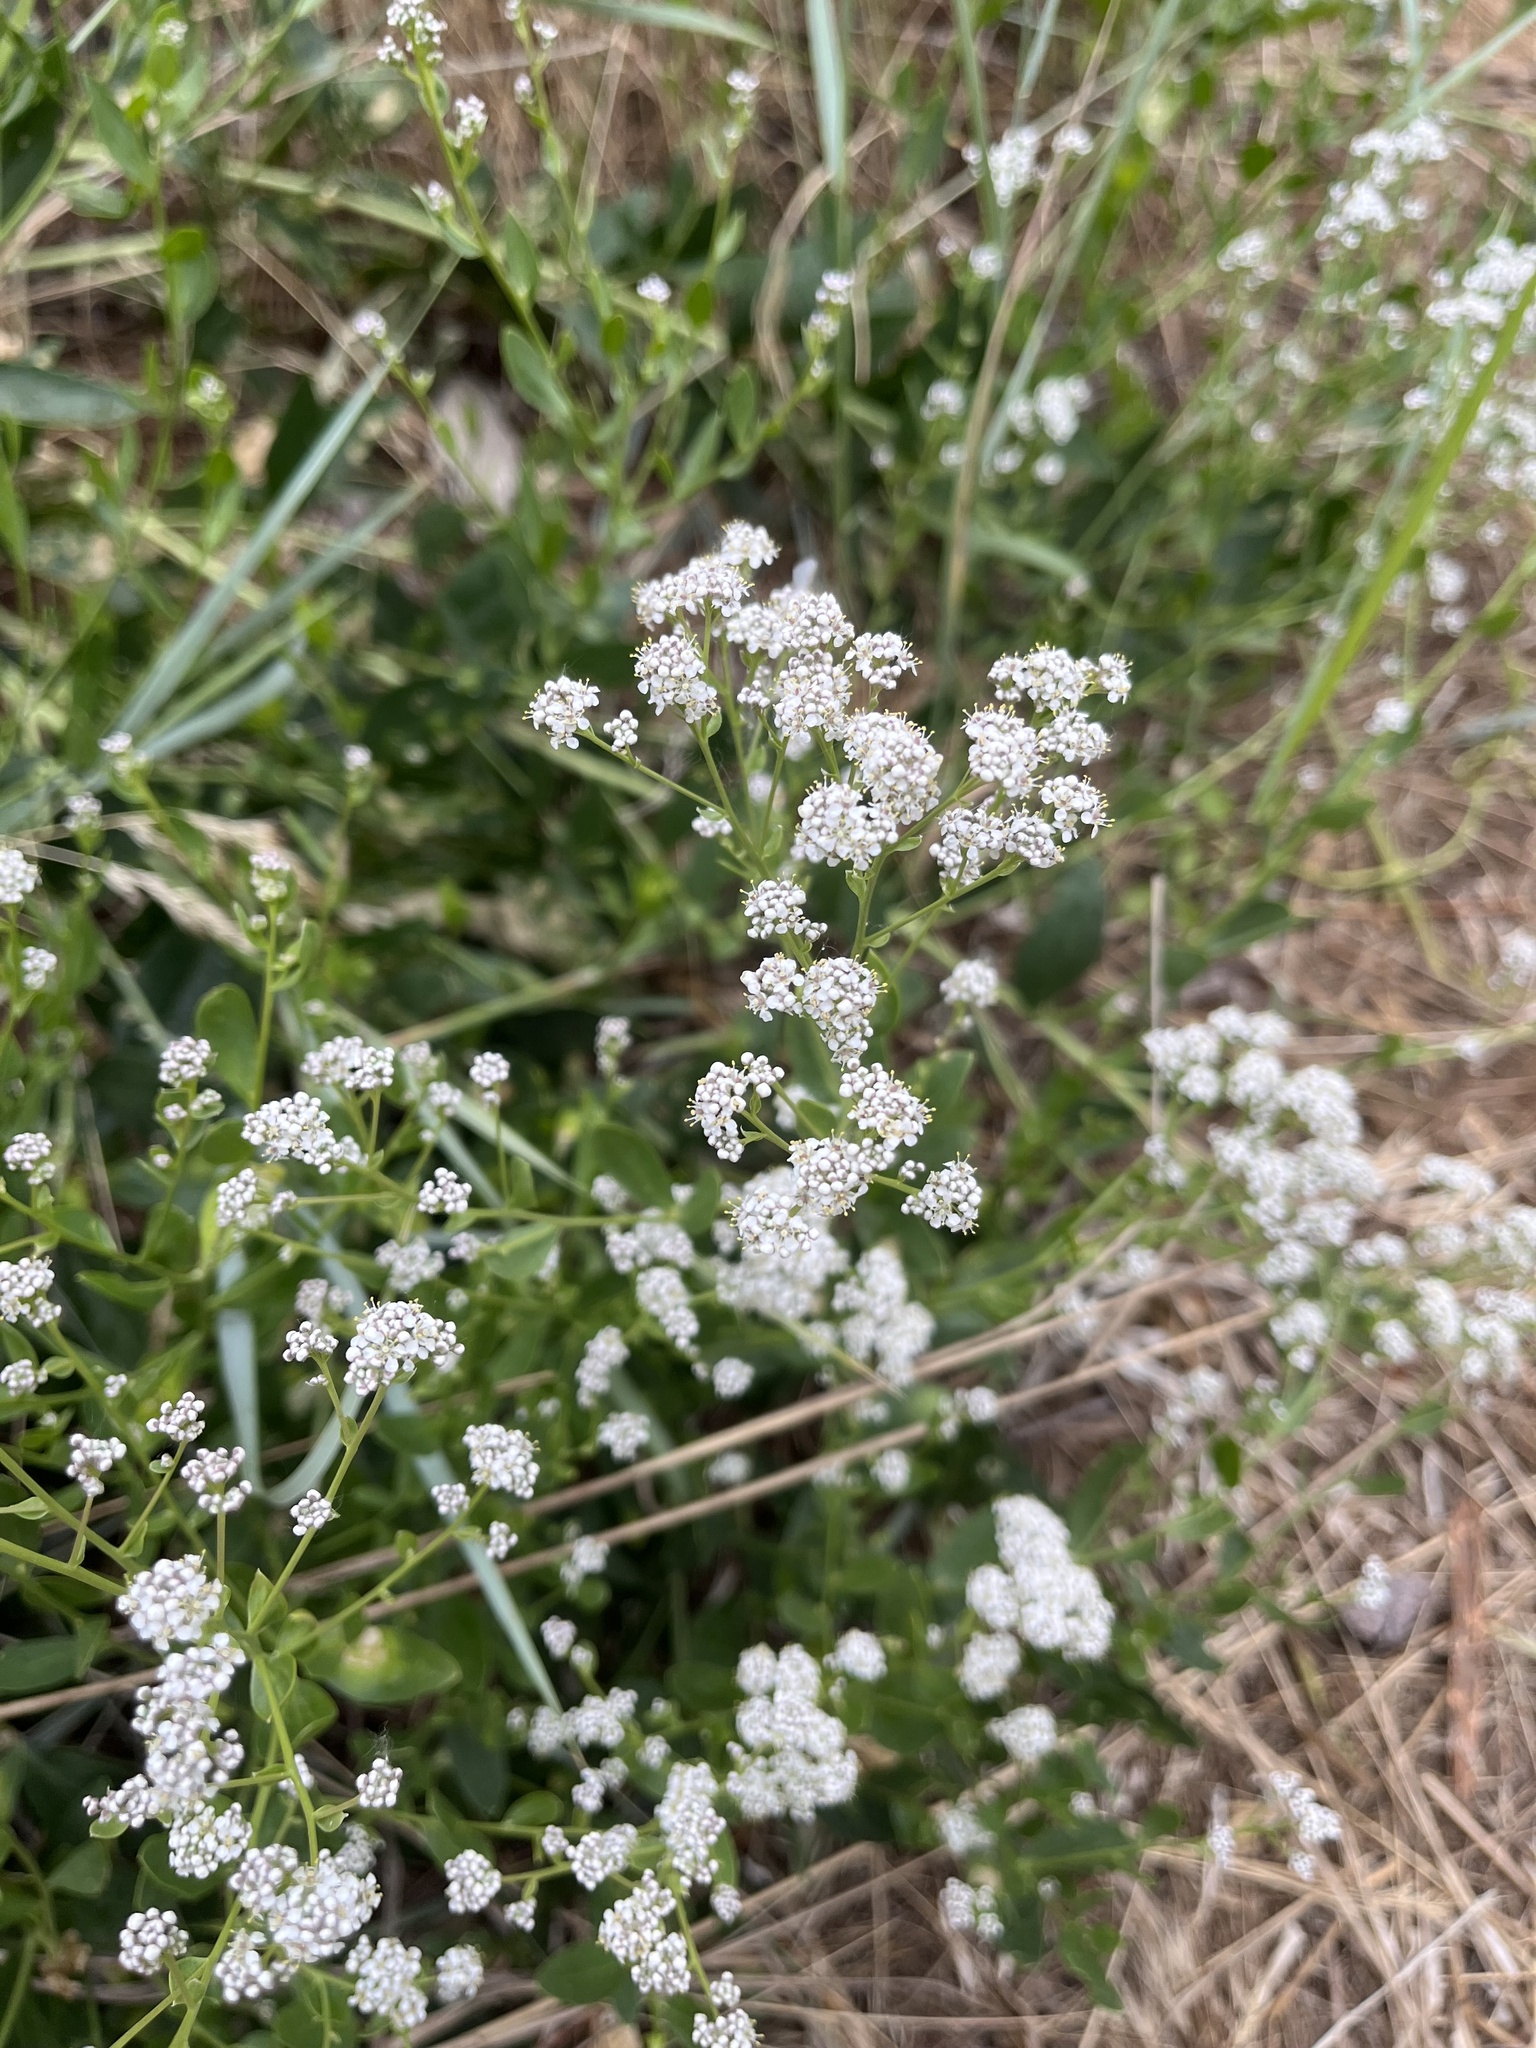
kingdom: Plantae
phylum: Tracheophyta
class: Magnoliopsida
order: Brassicales
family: Brassicaceae
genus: Lepidium
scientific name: Lepidium latifolium
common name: Dittander
